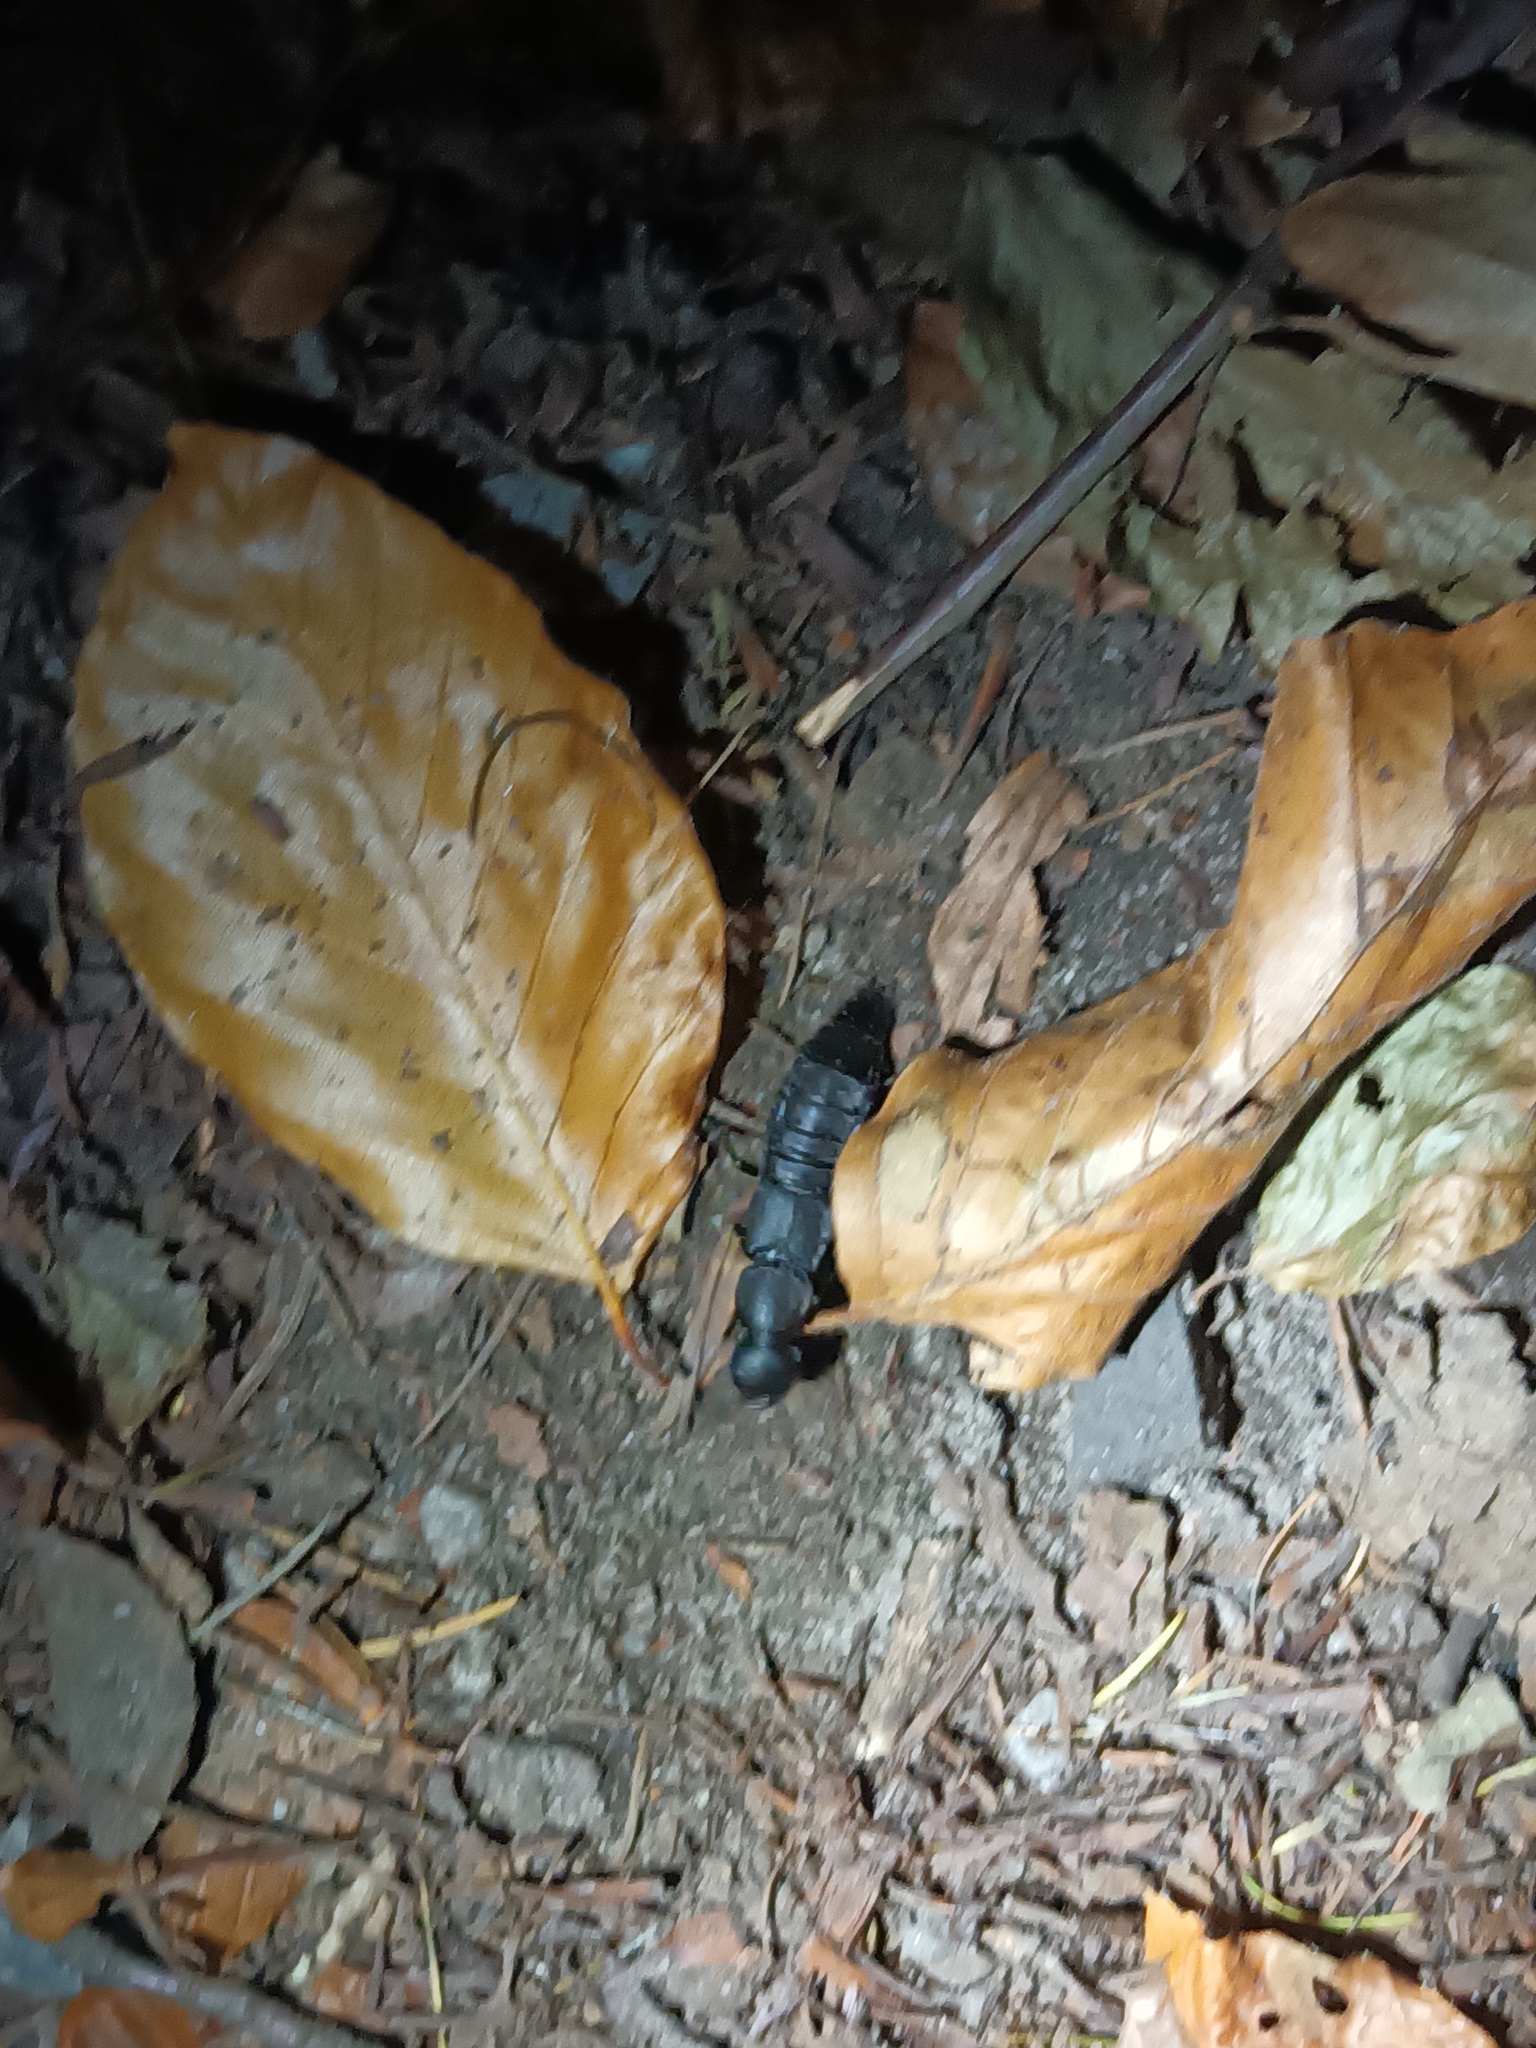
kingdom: Animalia
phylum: Arthropoda
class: Insecta
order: Coleoptera
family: Staphylinidae
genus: Ocypus
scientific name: Ocypus olens
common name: Devil's coach-horse
